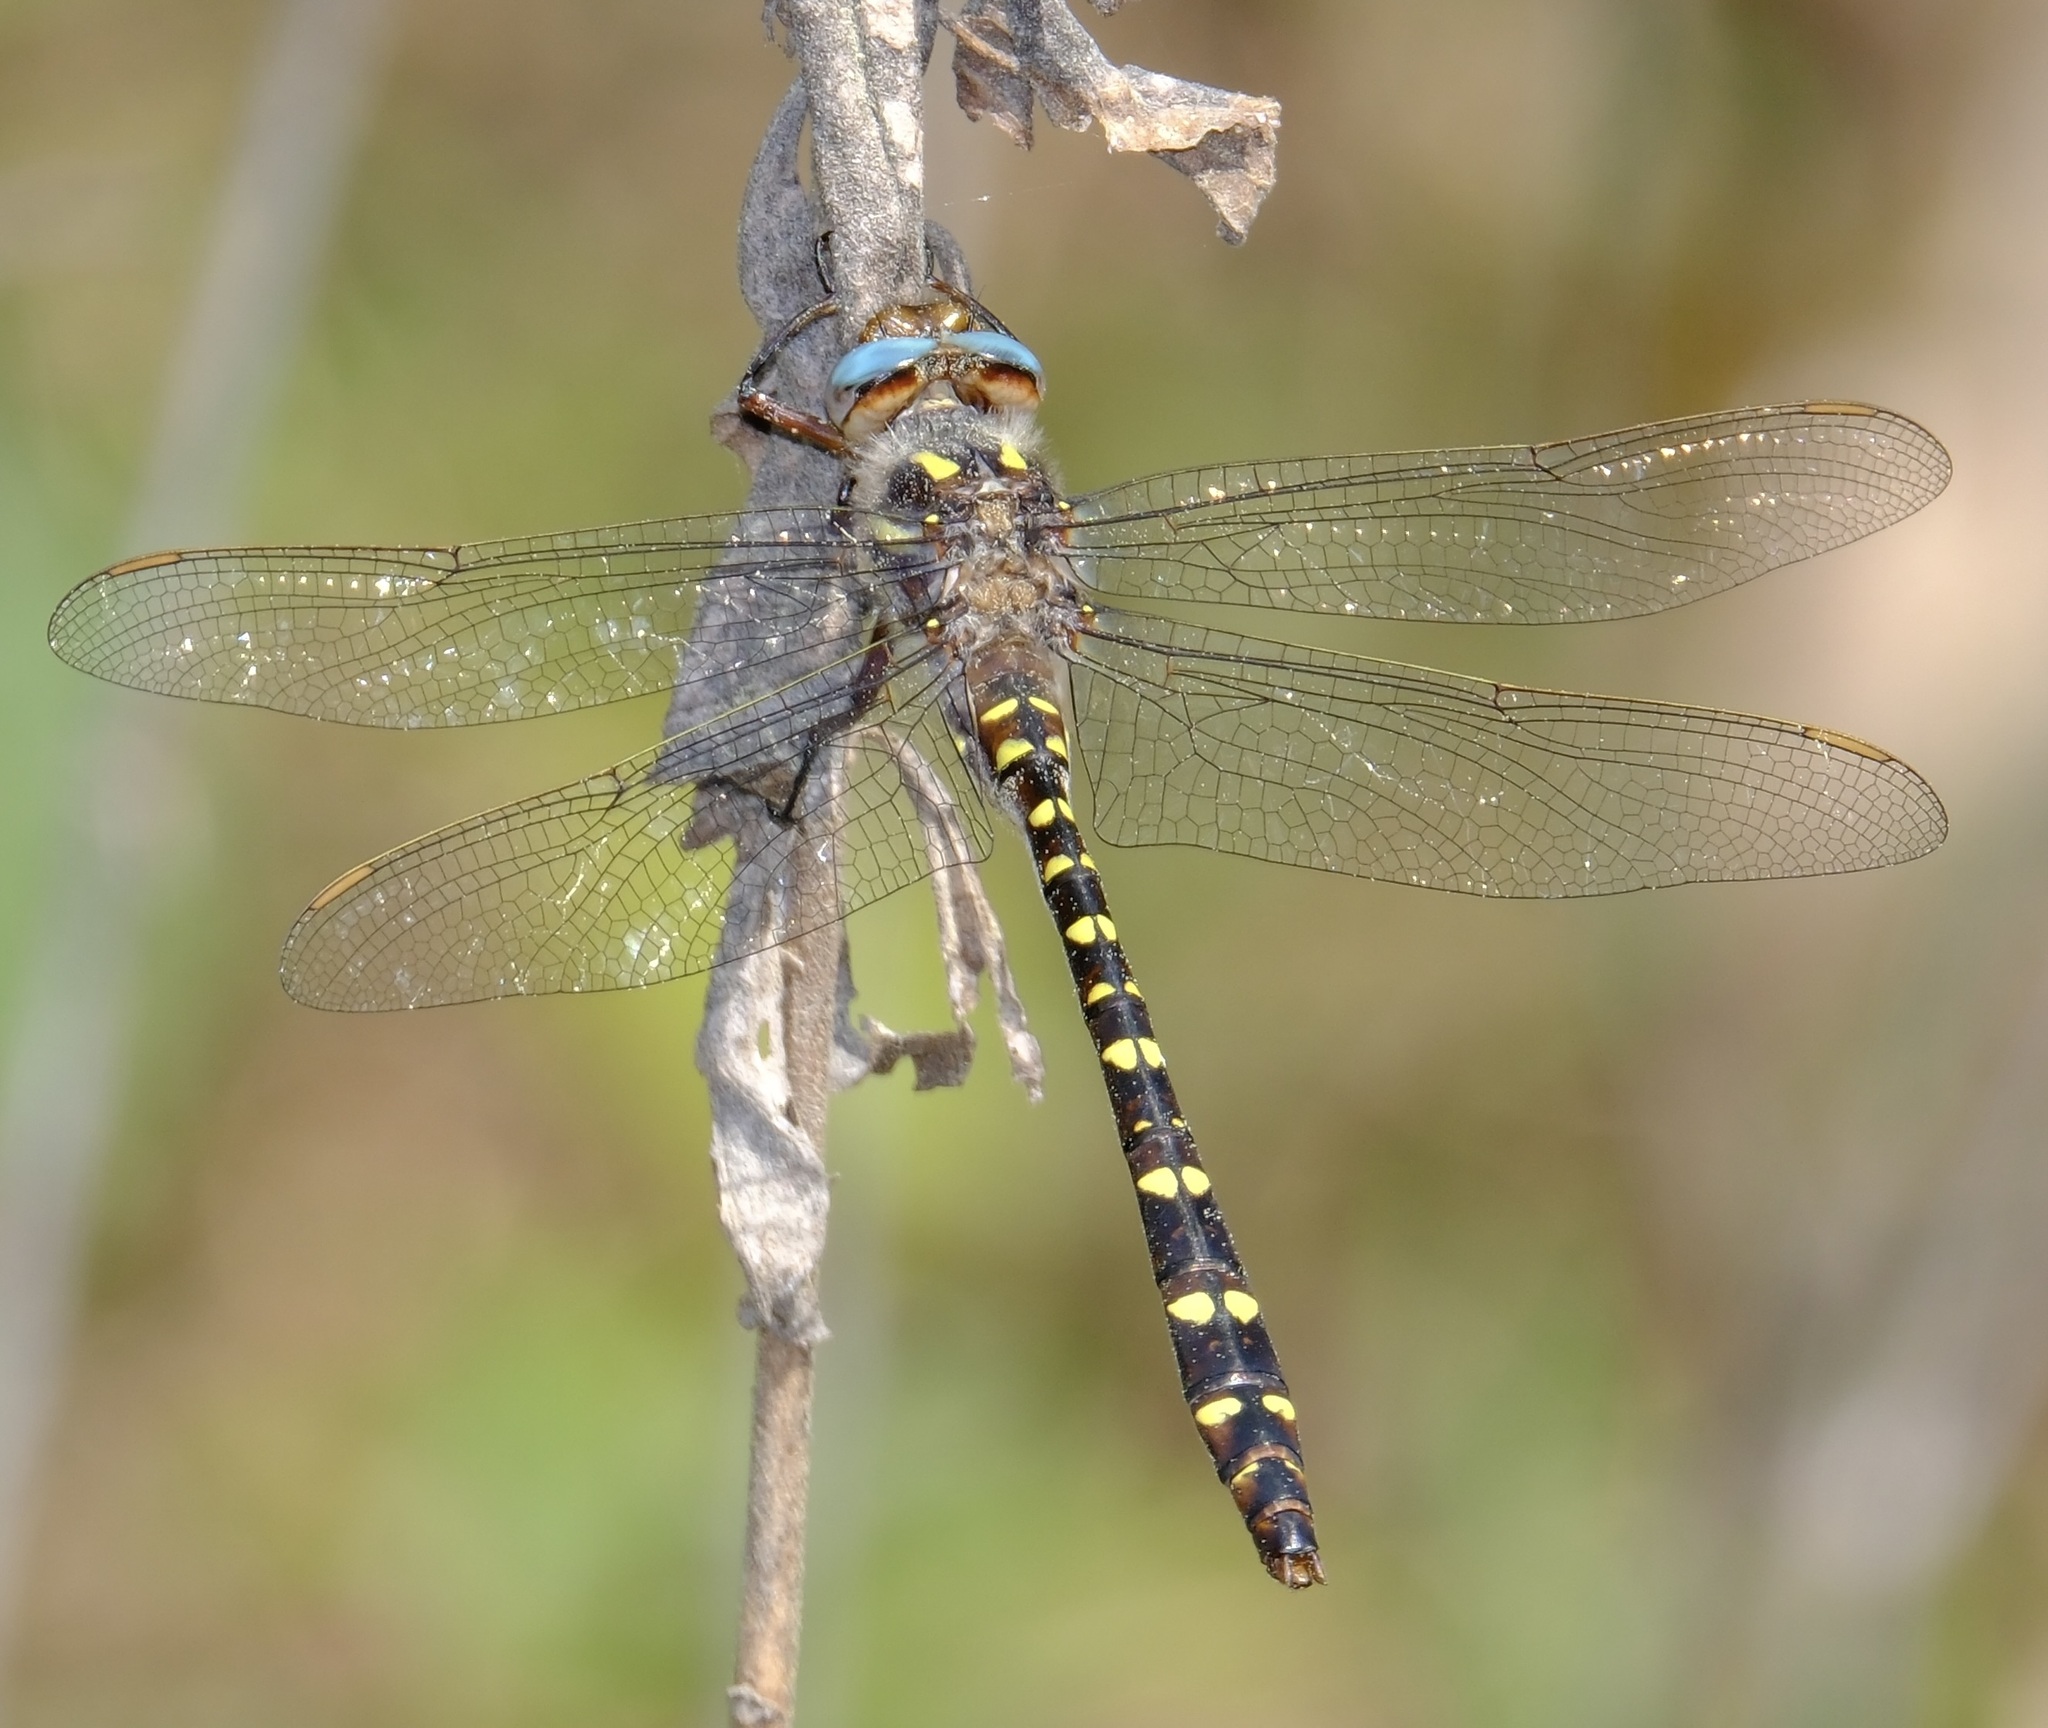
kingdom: Animalia
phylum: Arthropoda
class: Insecta
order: Odonata
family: Cordulegastridae
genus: Cordulegaster
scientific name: Cordulegaster maculata
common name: Twin-spotted spiketail
